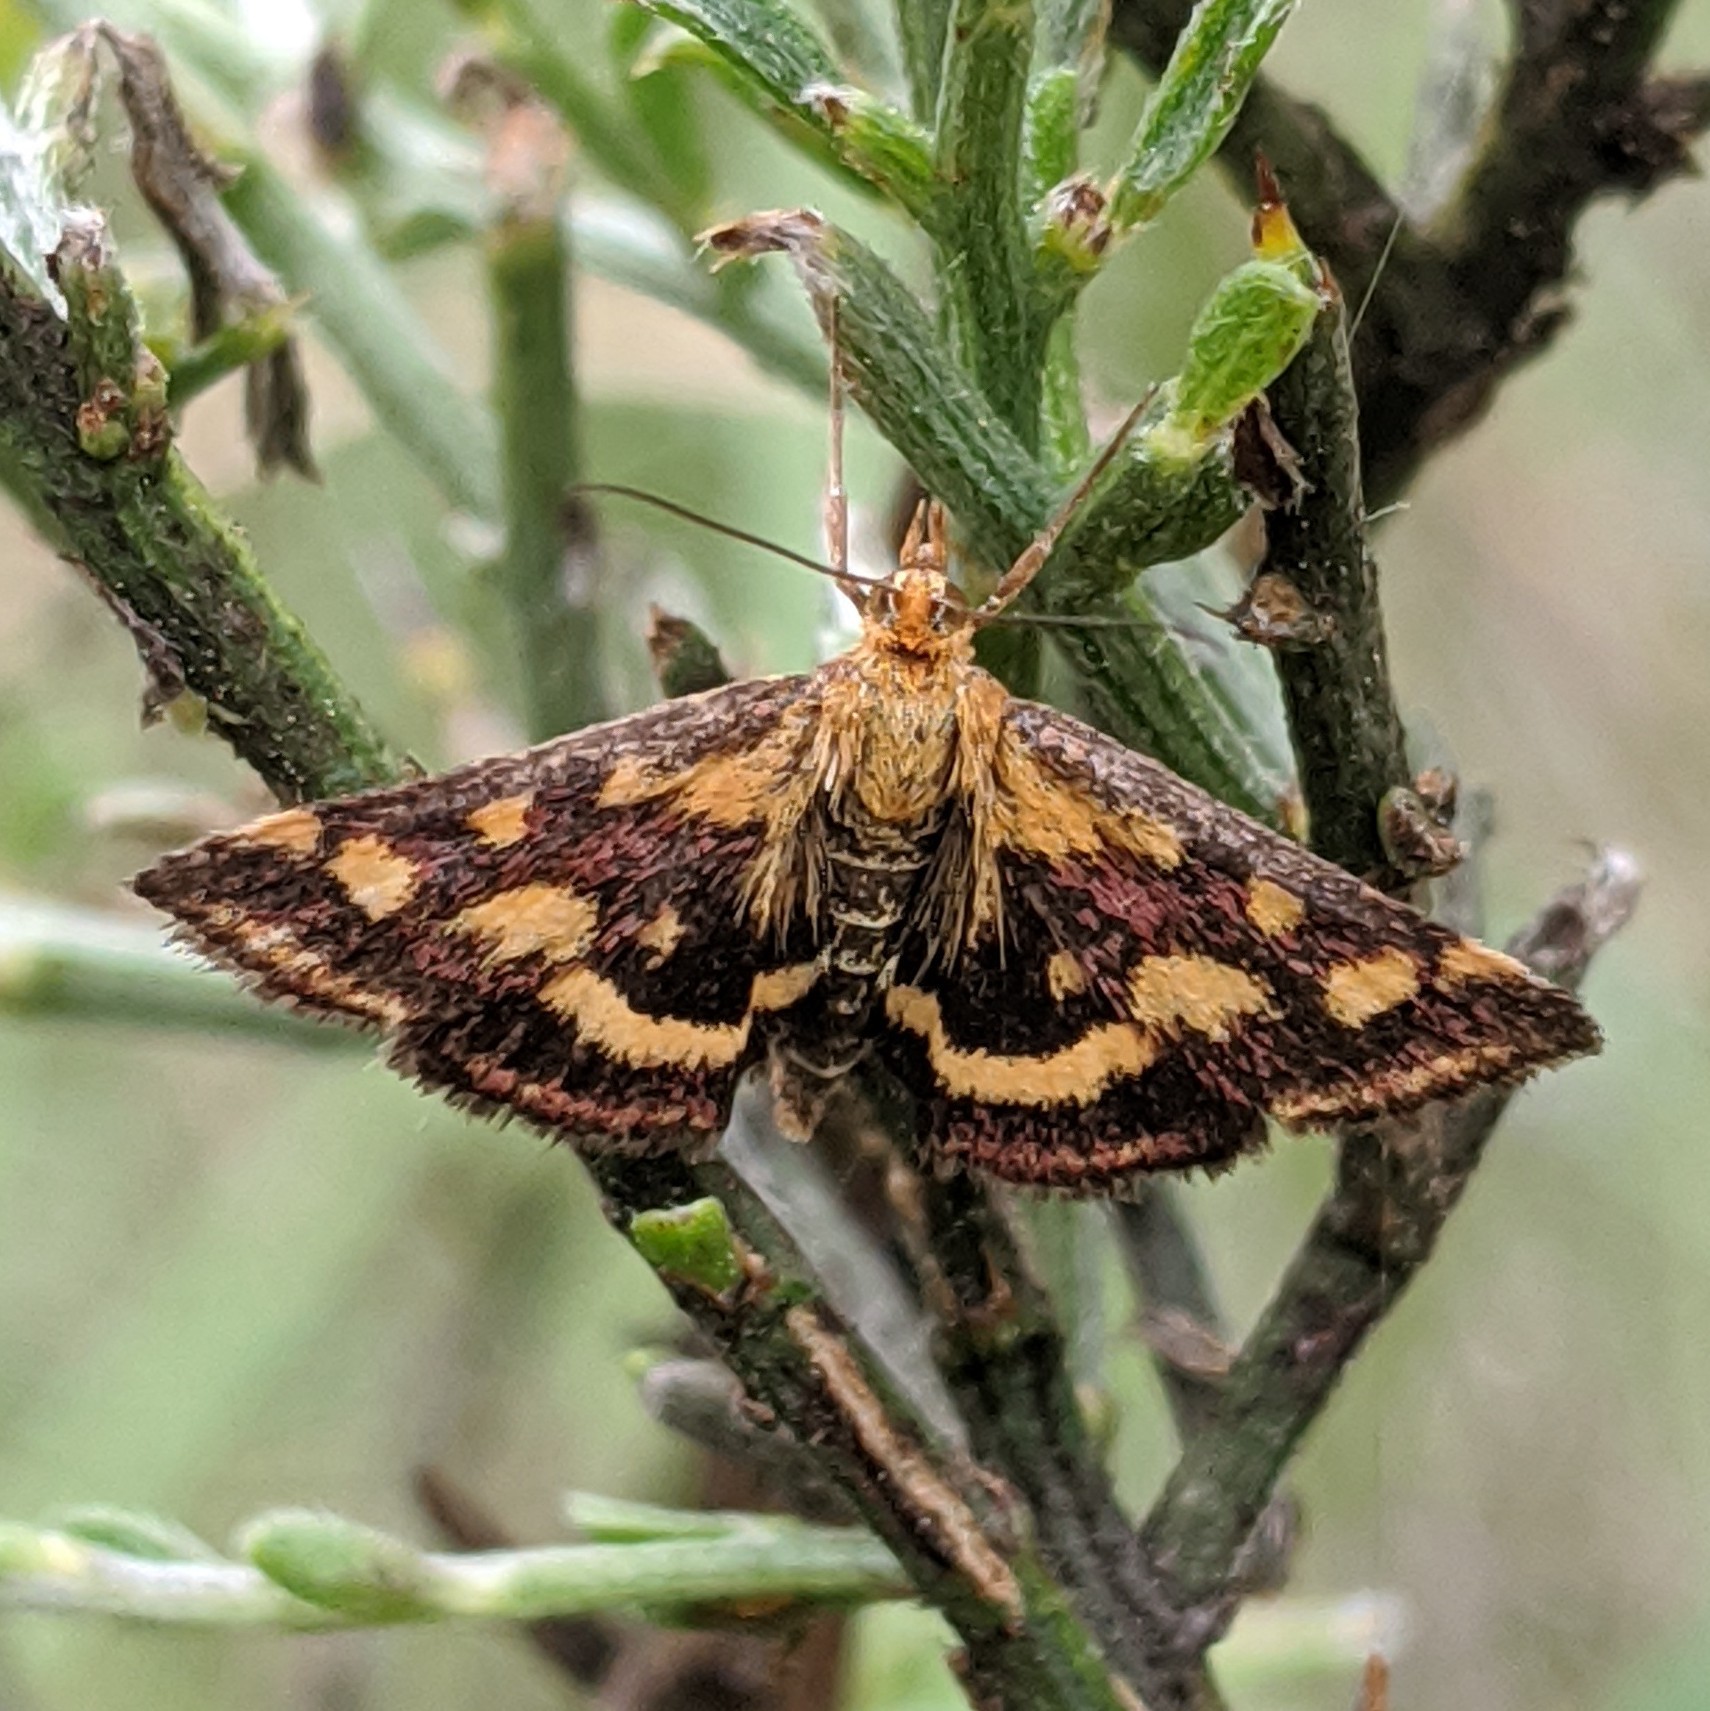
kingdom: Animalia
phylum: Arthropoda
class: Insecta
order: Lepidoptera
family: Crambidae
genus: Pyrausta
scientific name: Pyrausta purpuralis
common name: Common purple & gold
